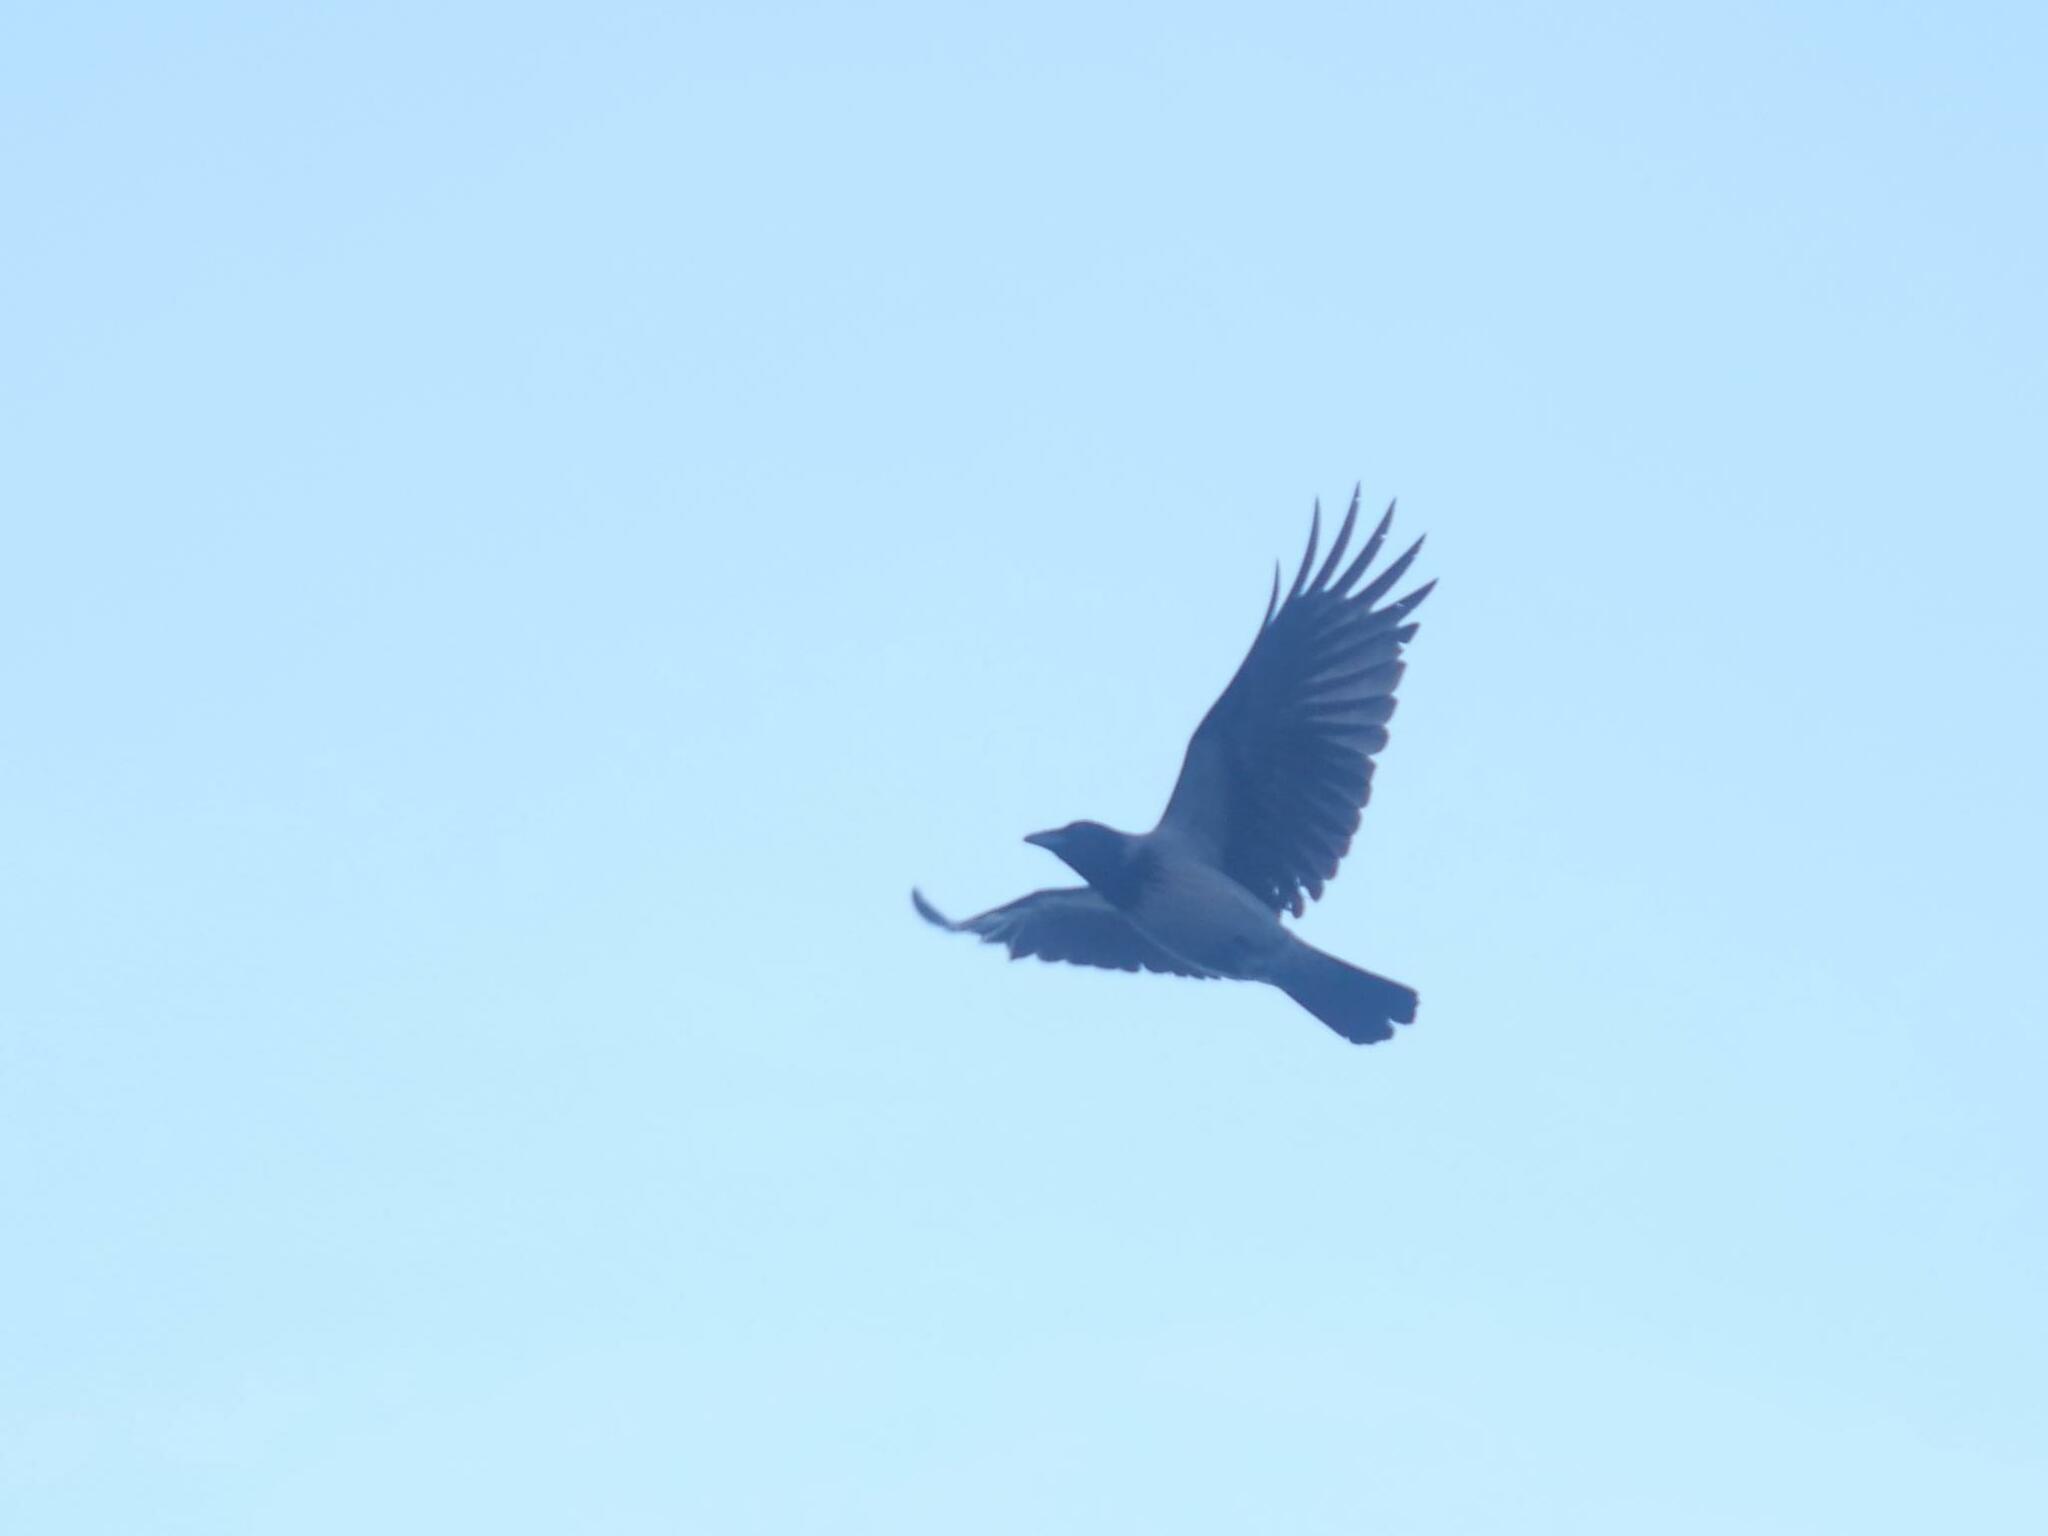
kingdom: Animalia
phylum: Chordata
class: Aves
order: Passeriformes
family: Corvidae
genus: Corvus
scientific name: Corvus cornix
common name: Hooded crow
